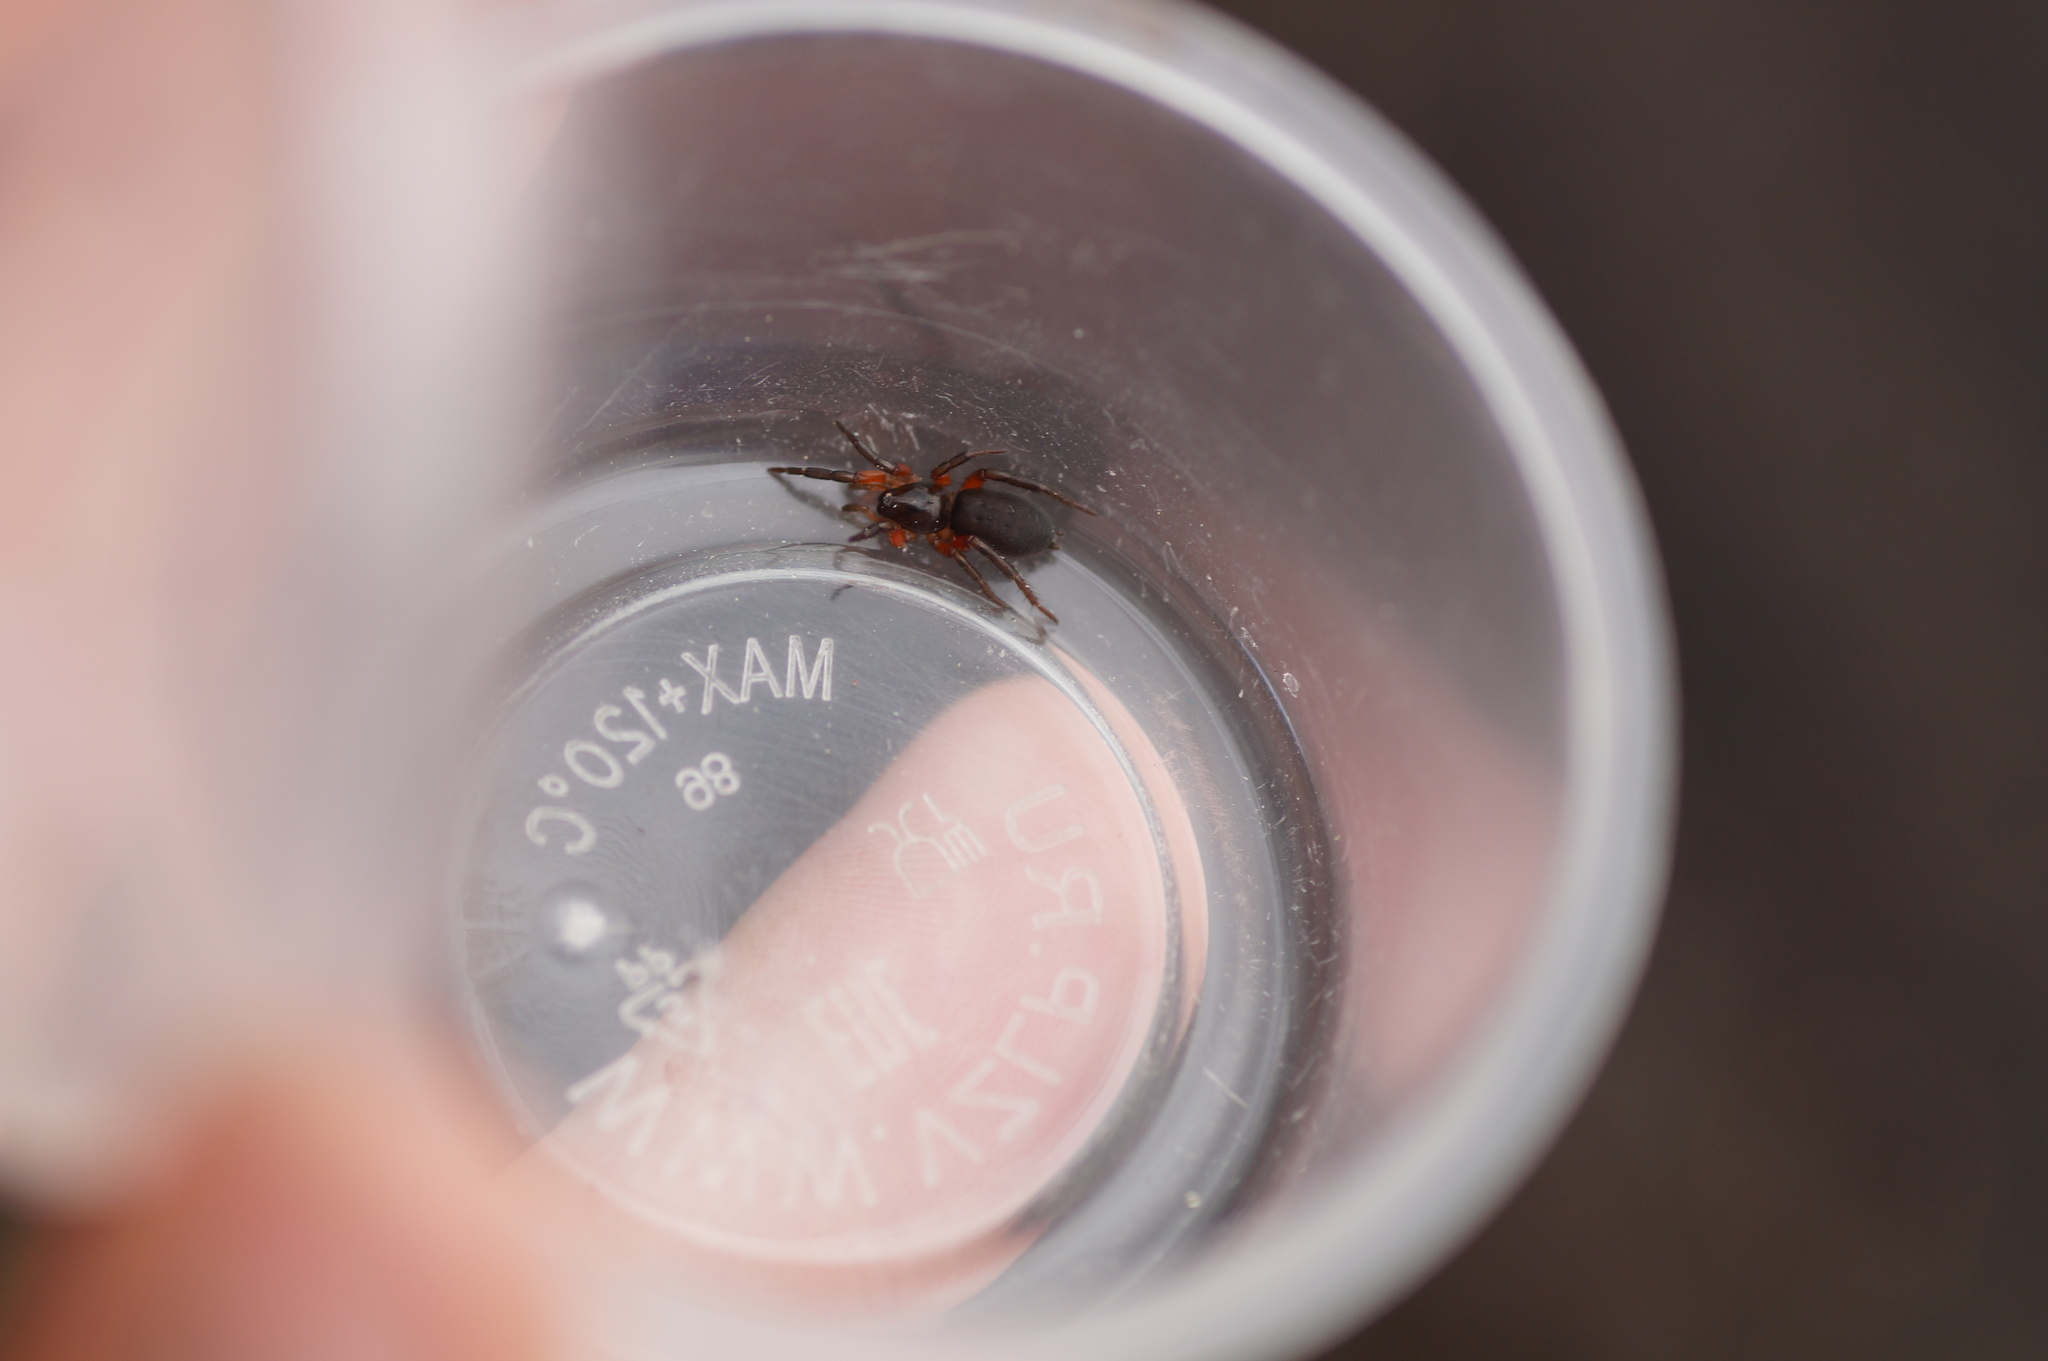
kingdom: Animalia
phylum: Arthropoda
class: Arachnida
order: Araneae
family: Gnaphosidae
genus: Gnaphosa
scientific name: Gnaphosa bicolor
